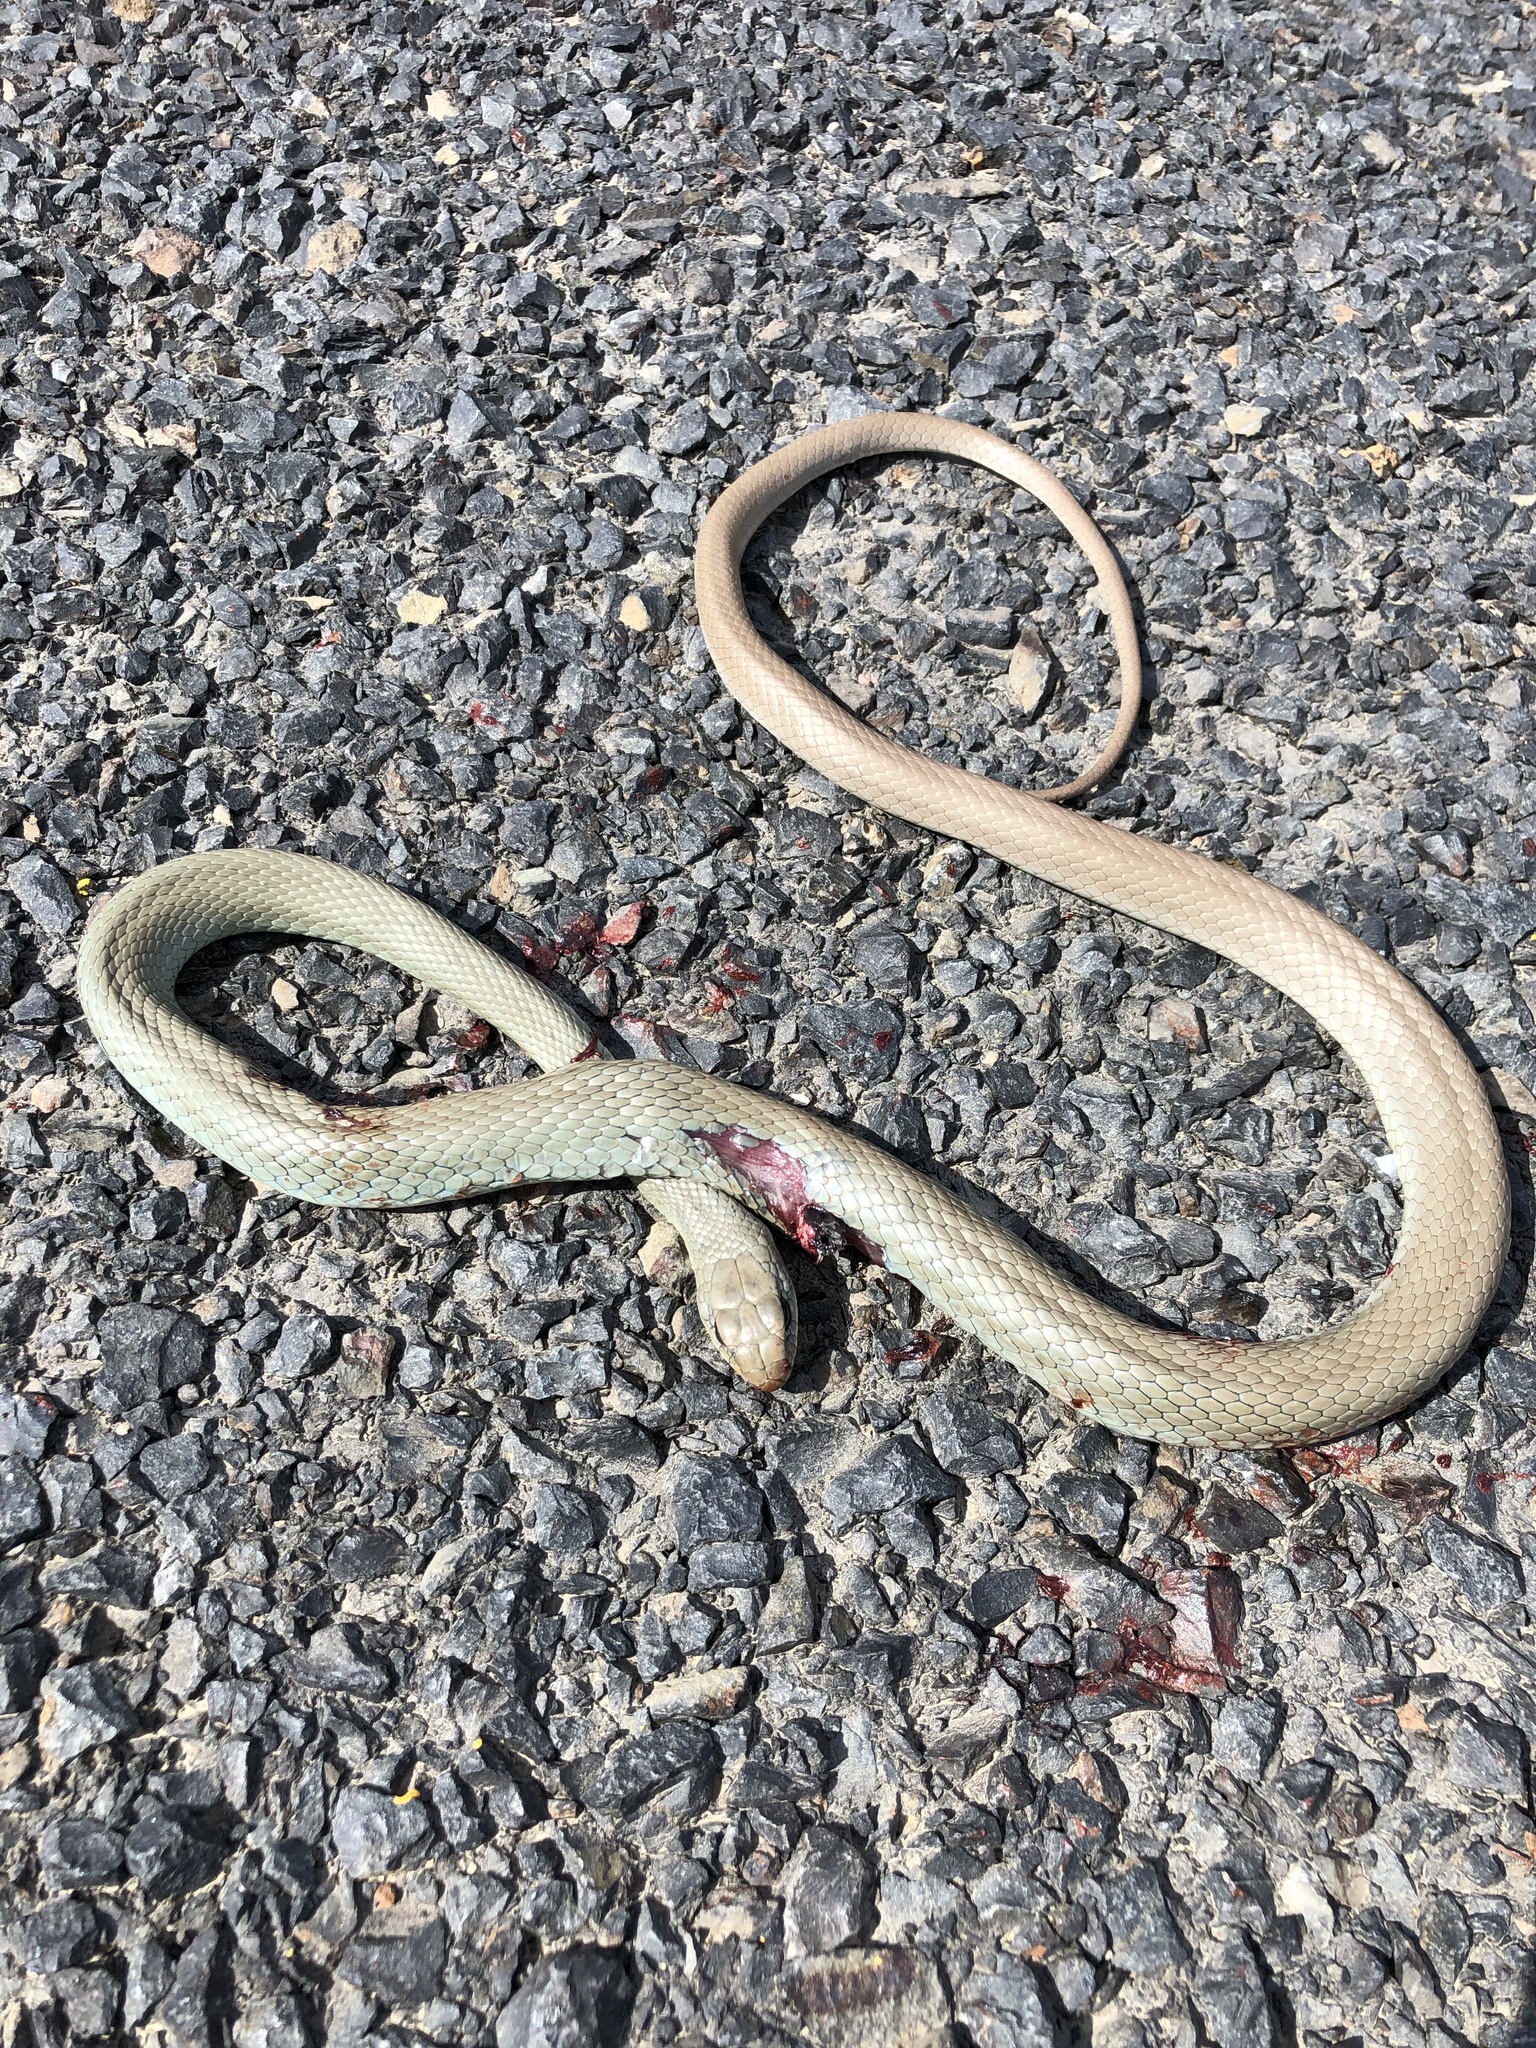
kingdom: Animalia
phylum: Chordata
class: Squamata
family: Colubridae
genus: Coluber
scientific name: Coluber constrictor
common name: Eastern racer
